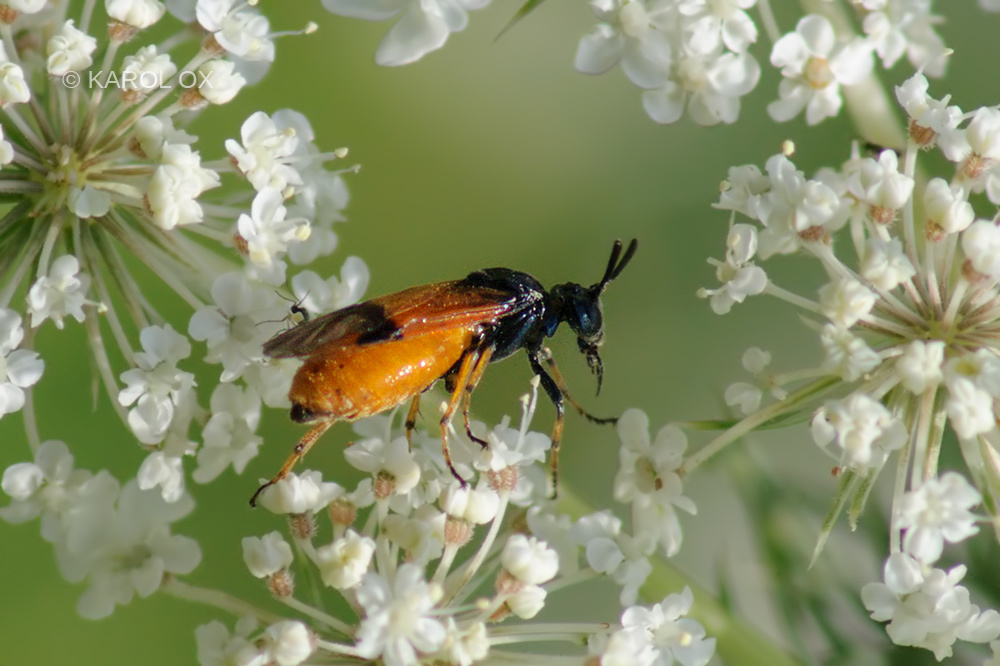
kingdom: Animalia
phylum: Arthropoda
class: Insecta
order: Hymenoptera
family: Argidae
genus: Arge
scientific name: Arge cyanocrocea
